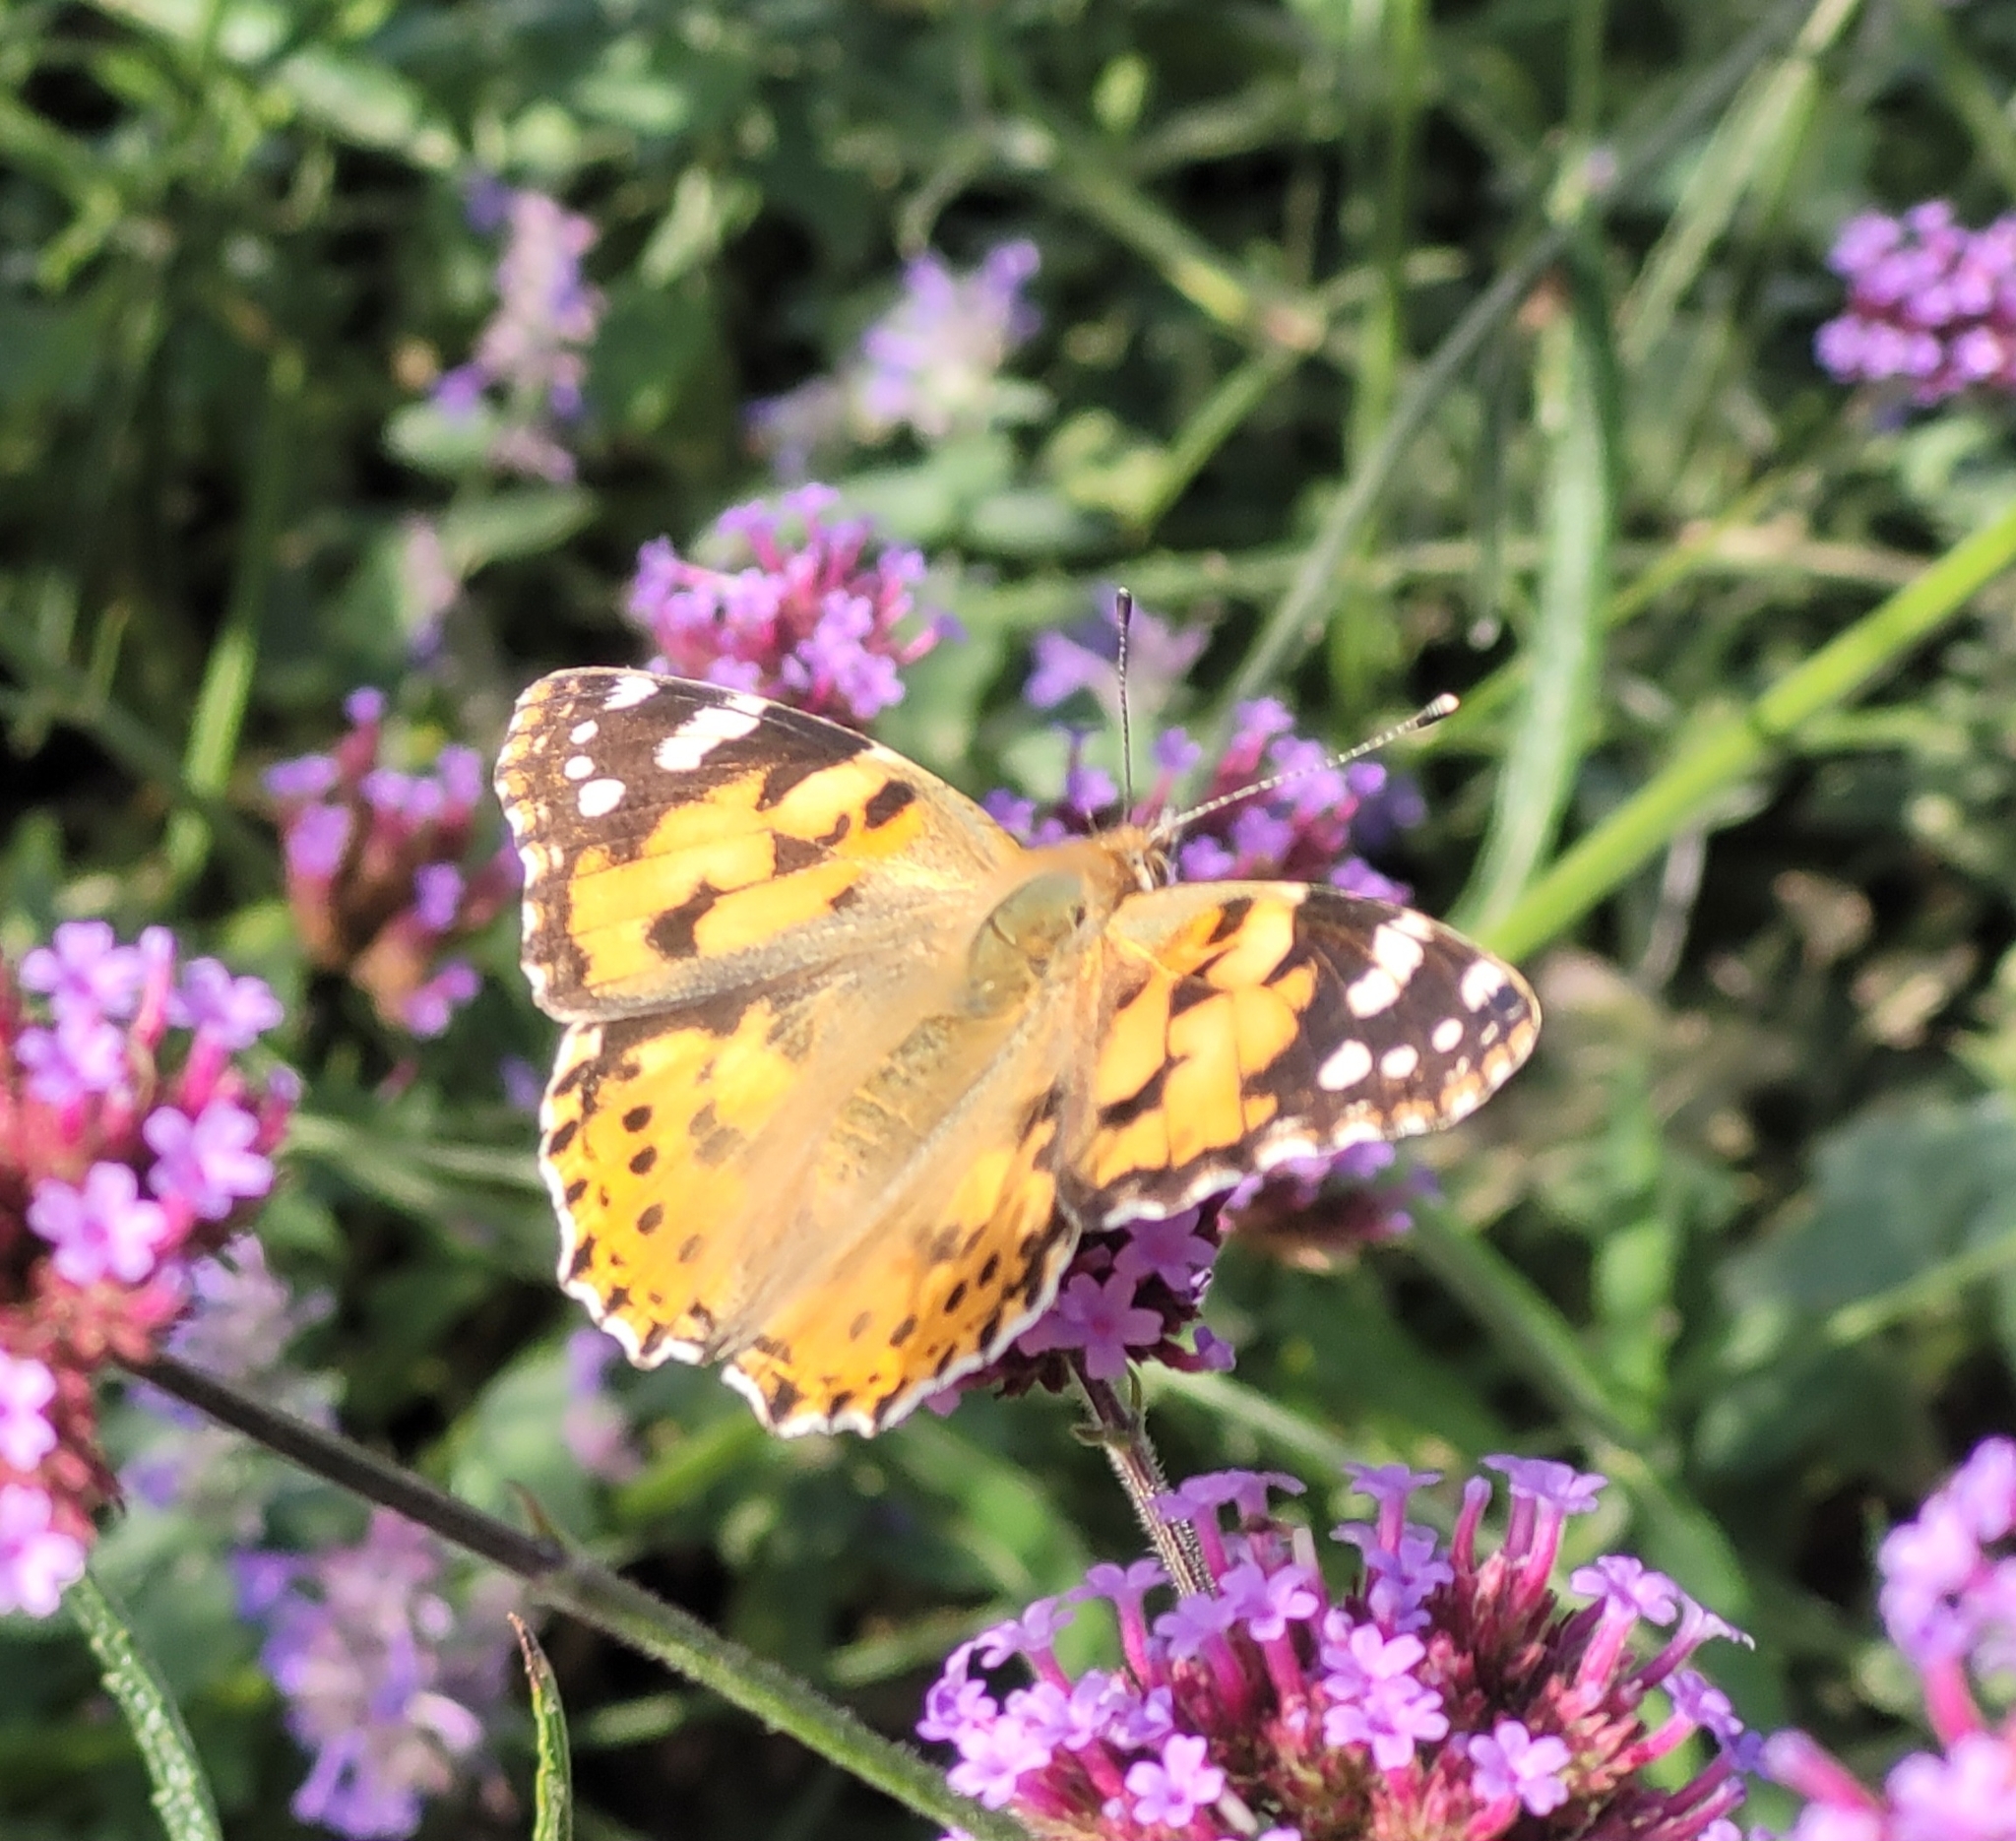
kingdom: Animalia
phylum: Arthropoda
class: Insecta
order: Lepidoptera
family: Nymphalidae
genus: Vanessa
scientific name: Vanessa cardui
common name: Painted lady
